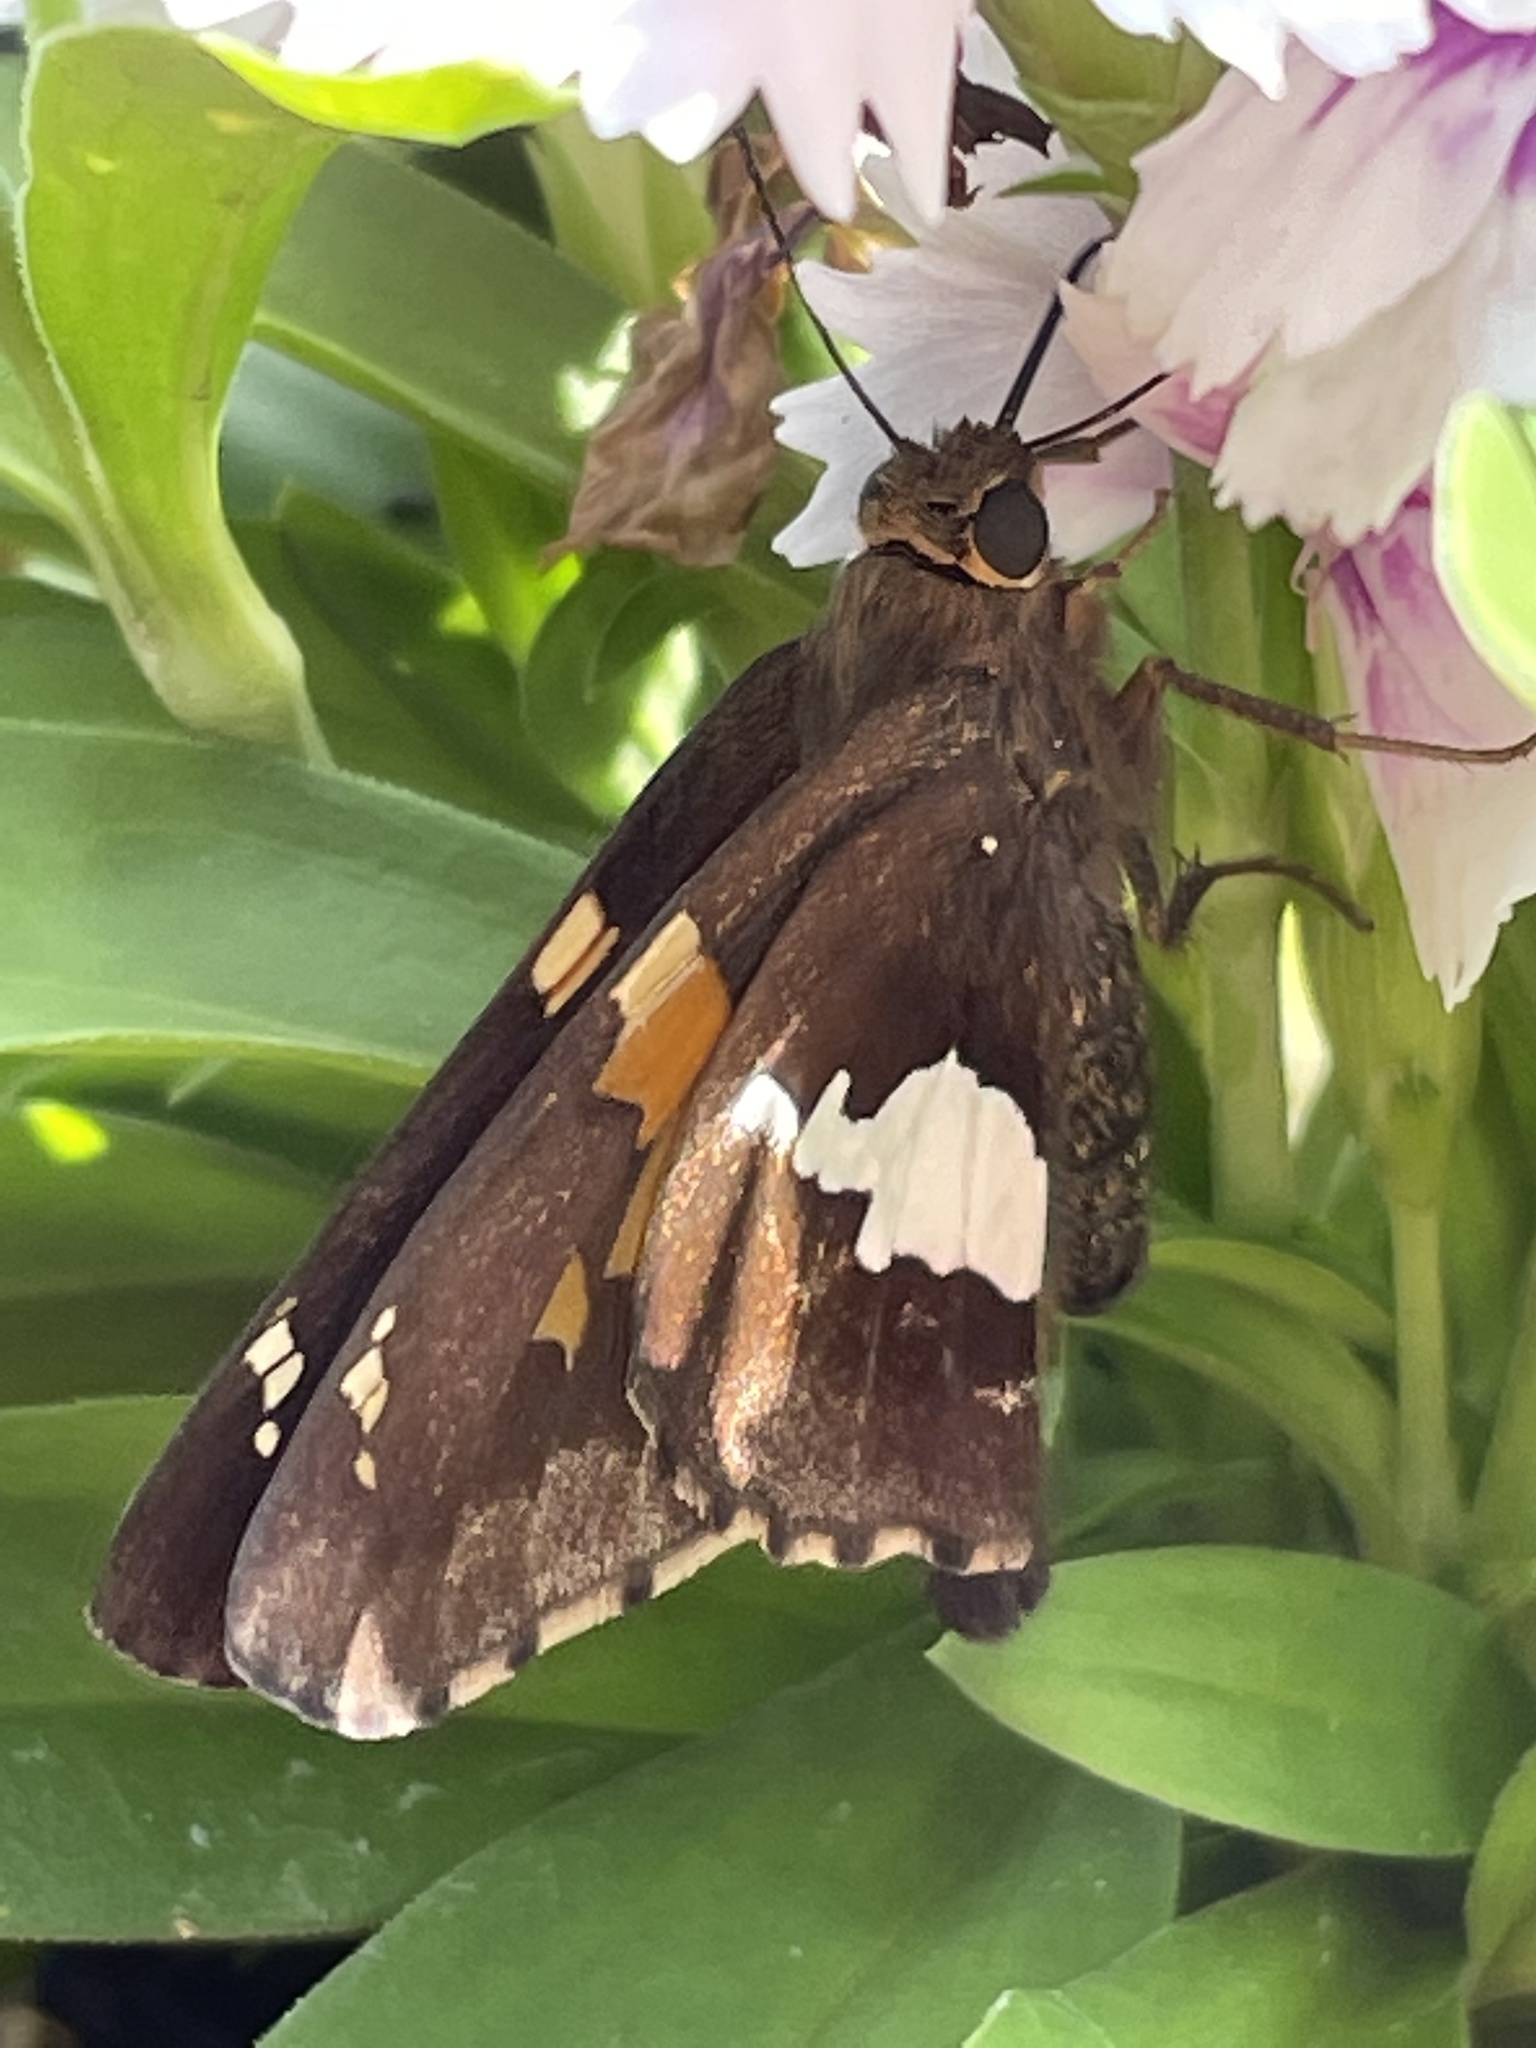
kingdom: Animalia
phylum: Arthropoda
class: Insecta
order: Lepidoptera
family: Hesperiidae
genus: Epargyreus
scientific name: Epargyreus clarus
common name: Silver-spotted skipper
